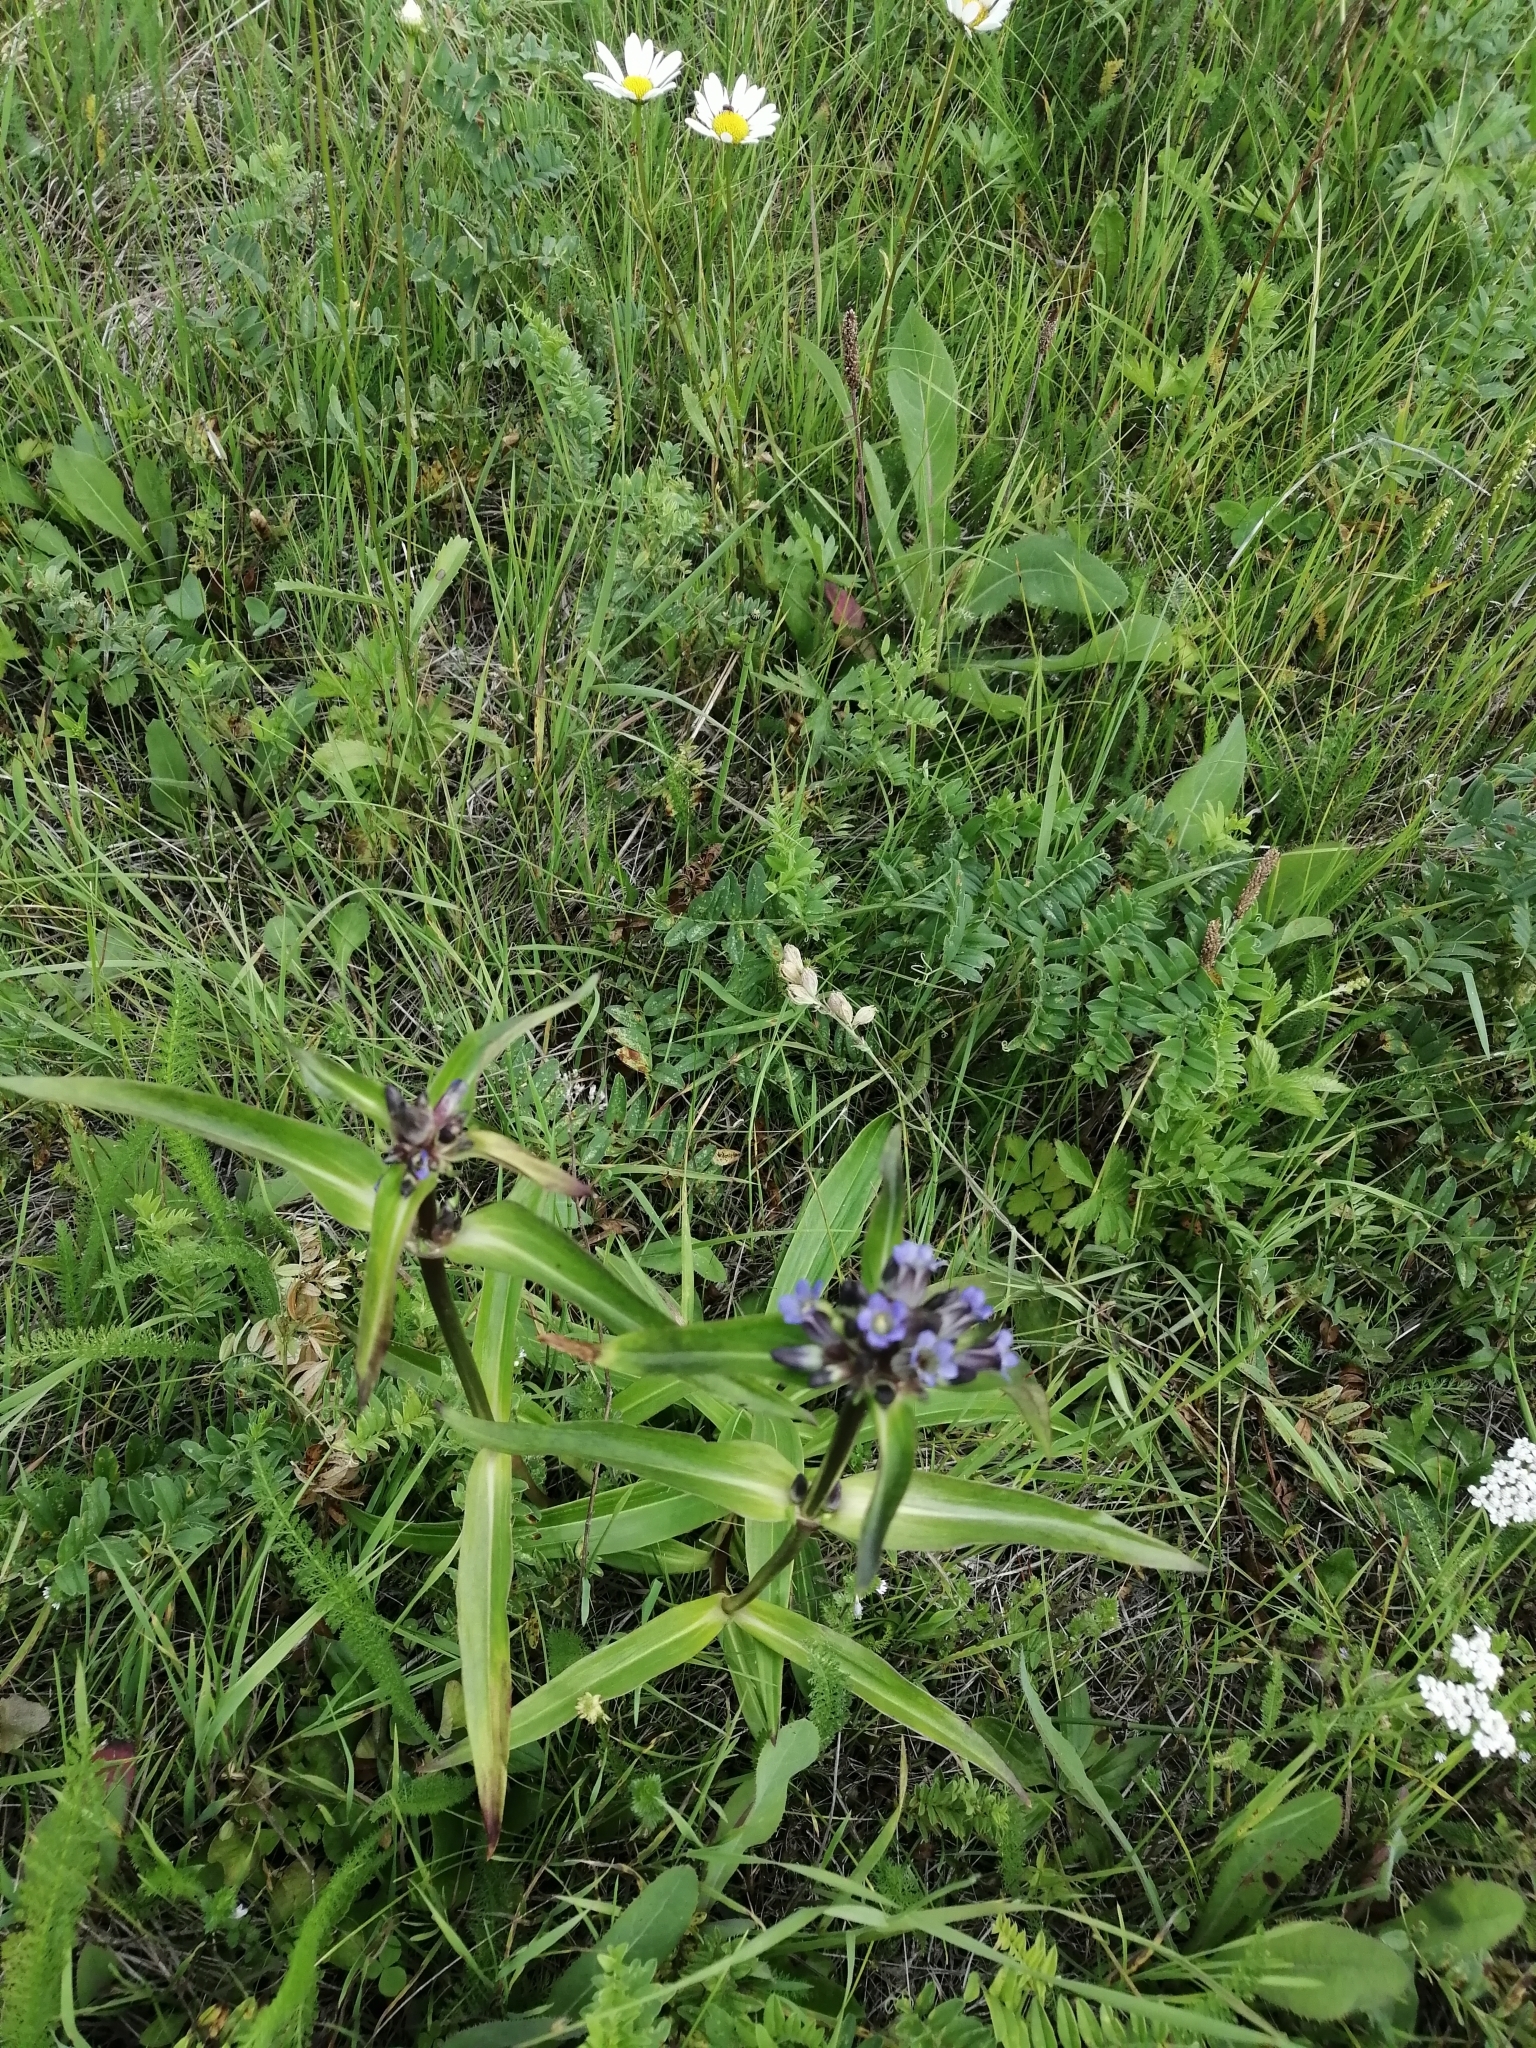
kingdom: Plantae
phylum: Tracheophyta
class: Magnoliopsida
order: Gentianales
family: Gentianaceae
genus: Gentiana
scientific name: Gentiana macrophylla
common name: Large-leaf gentian
